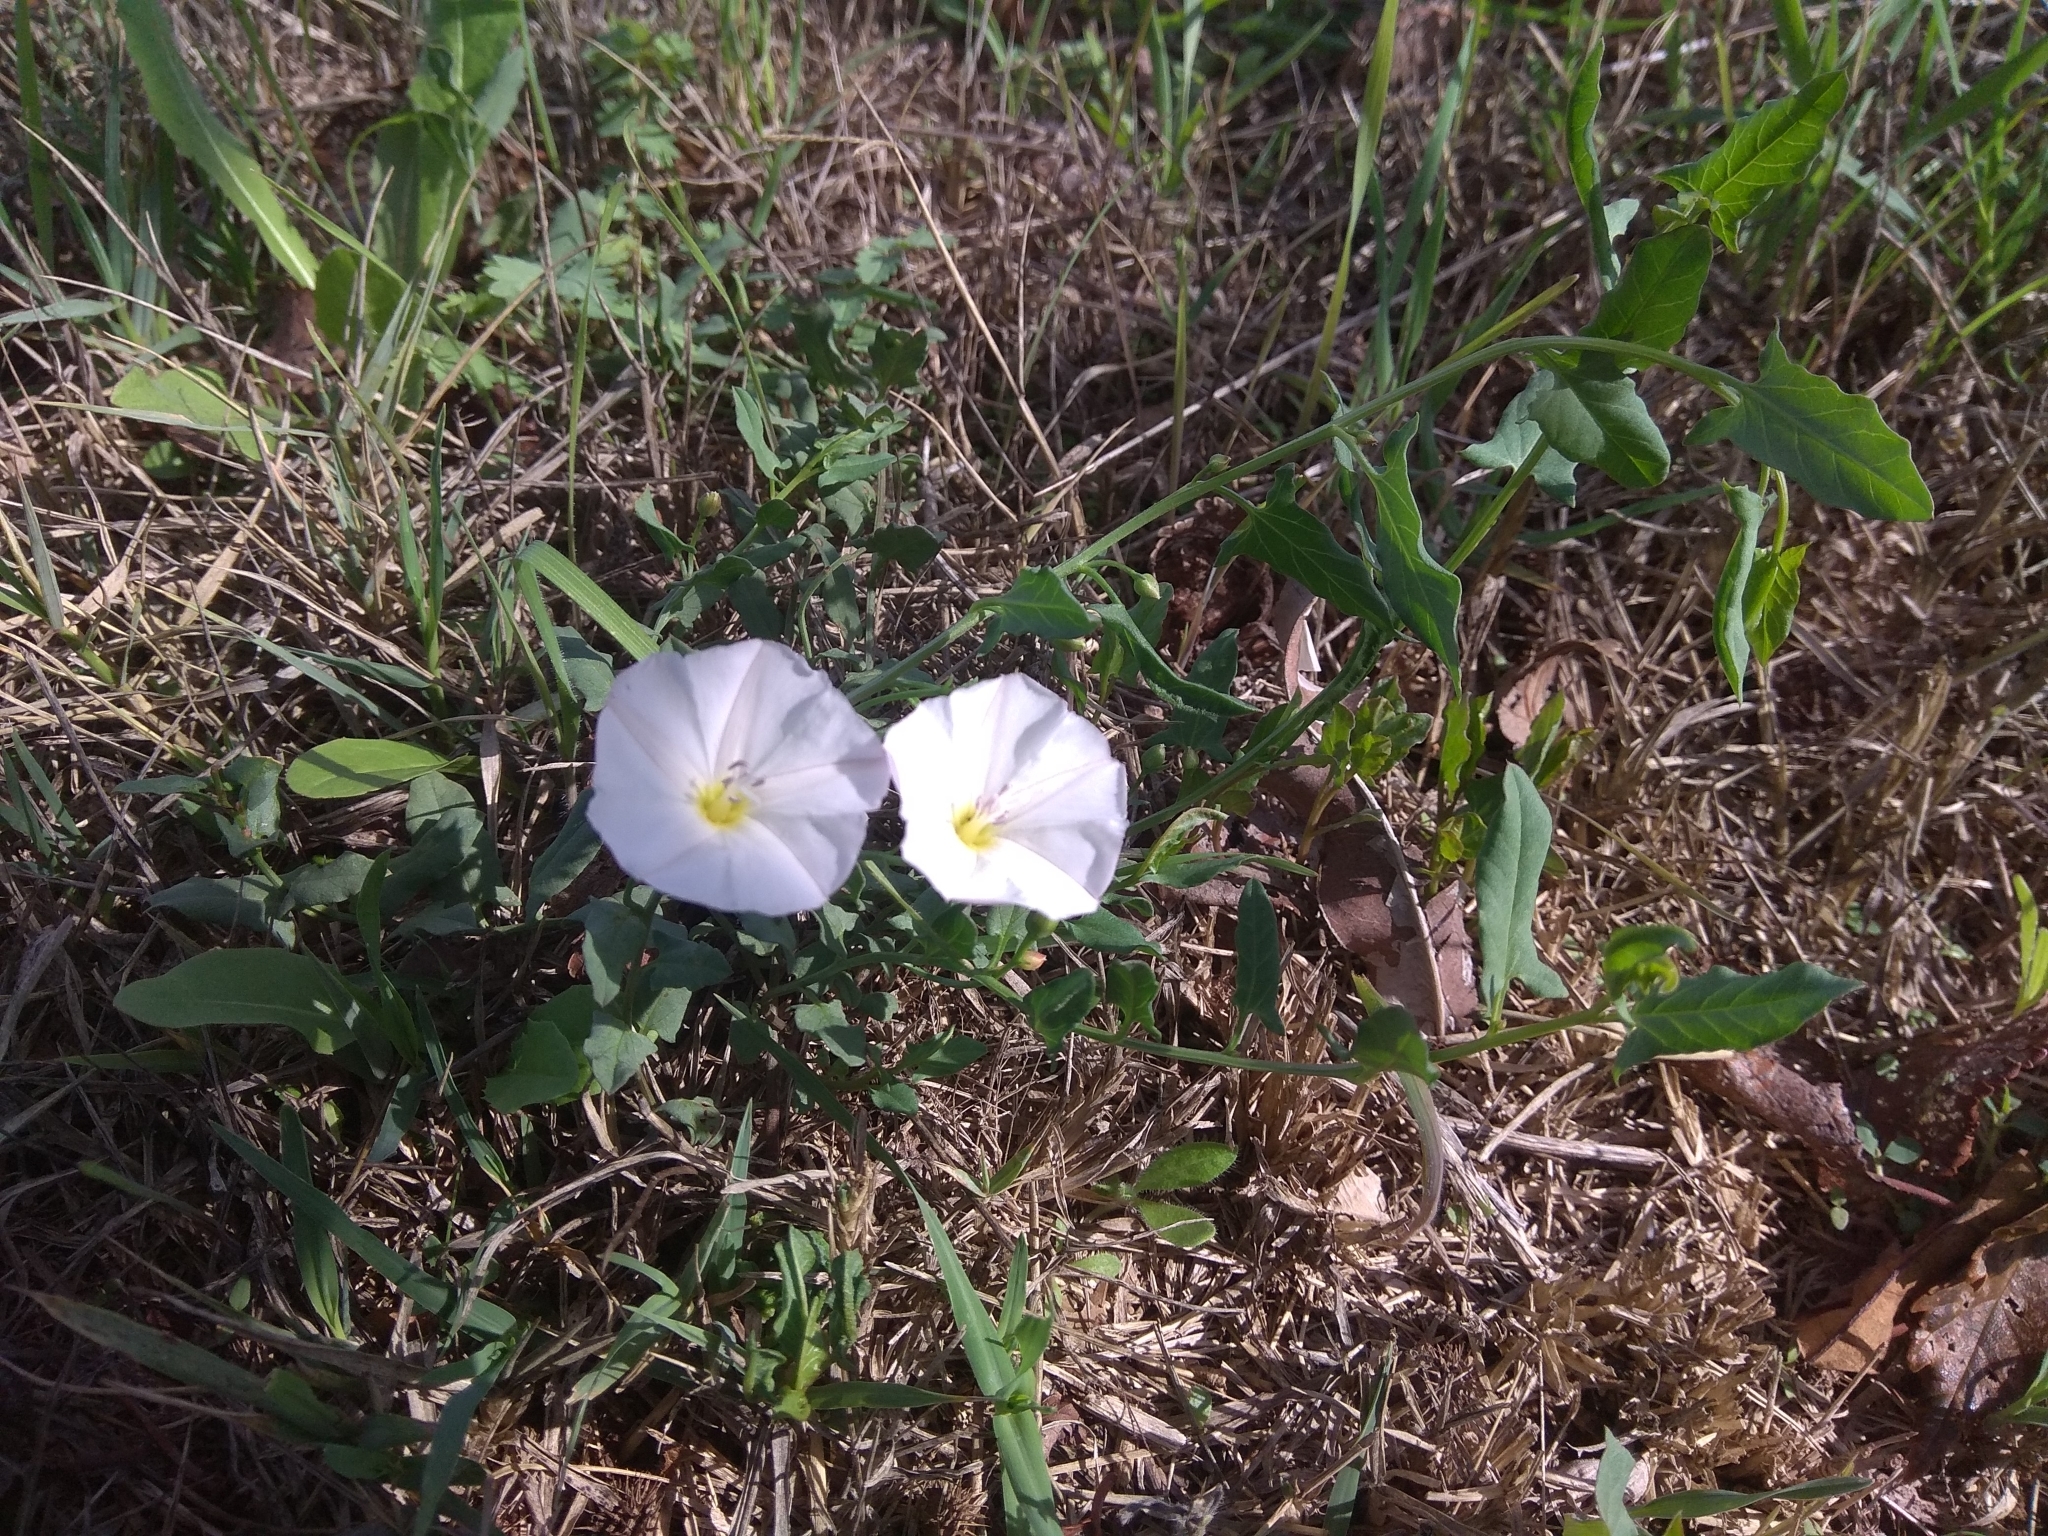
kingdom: Plantae
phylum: Tracheophyta
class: Magnoliopsida
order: Solanales
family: Convolvulaceae
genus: Convolvulus
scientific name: Convolvulus arvensis
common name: Field bindweed
